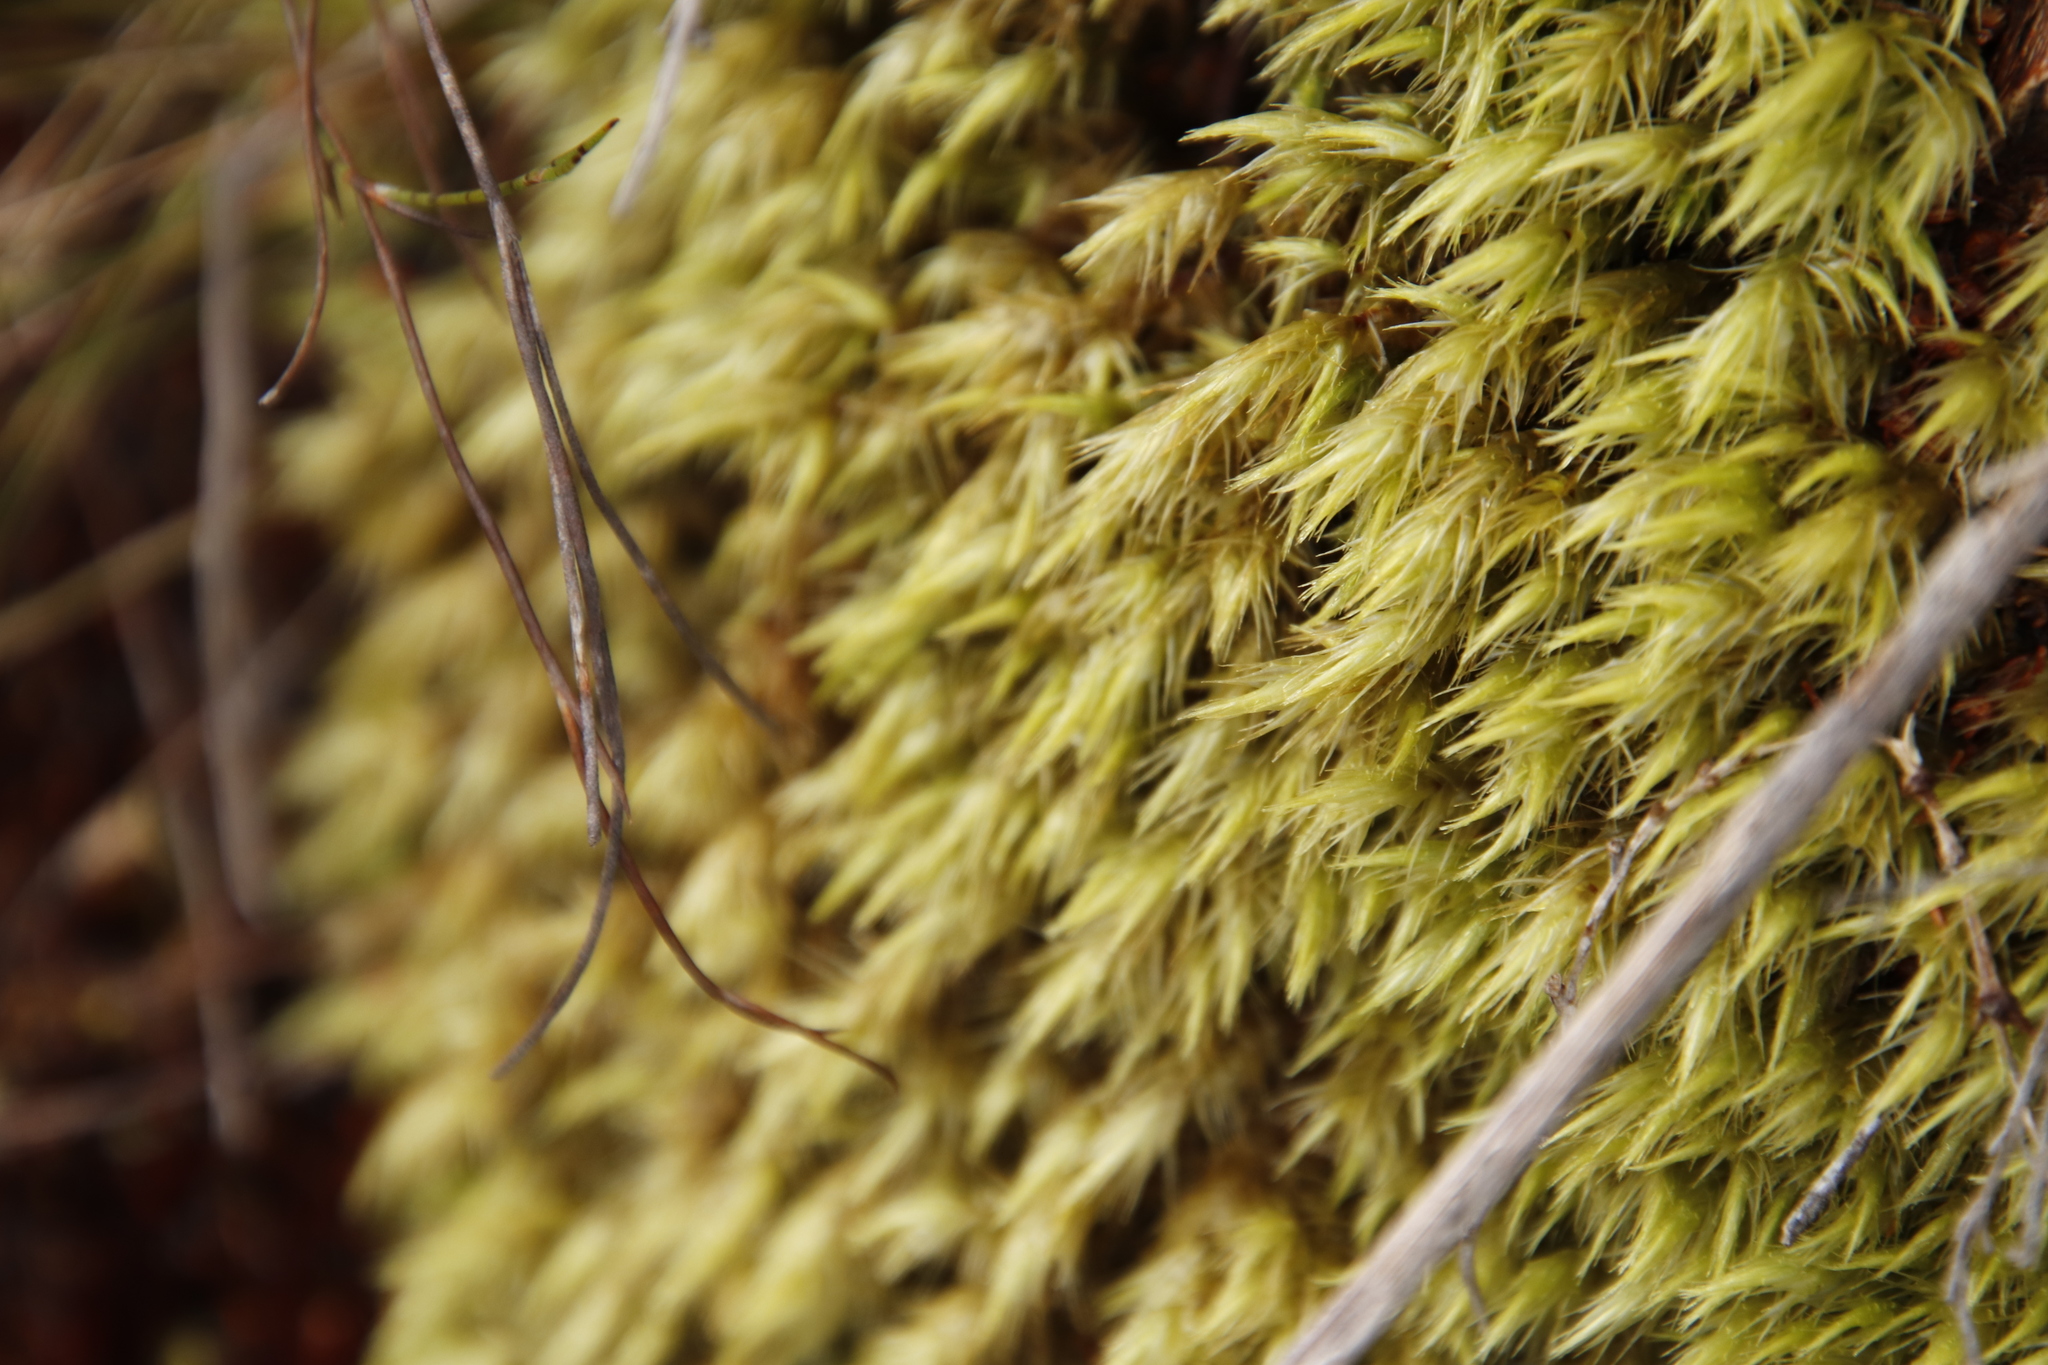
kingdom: Plantae
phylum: Bryophyta
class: Bryopsida
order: Dicranales
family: Dicranaceae
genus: Dicranoloma
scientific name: Dicranoloma billardieri
